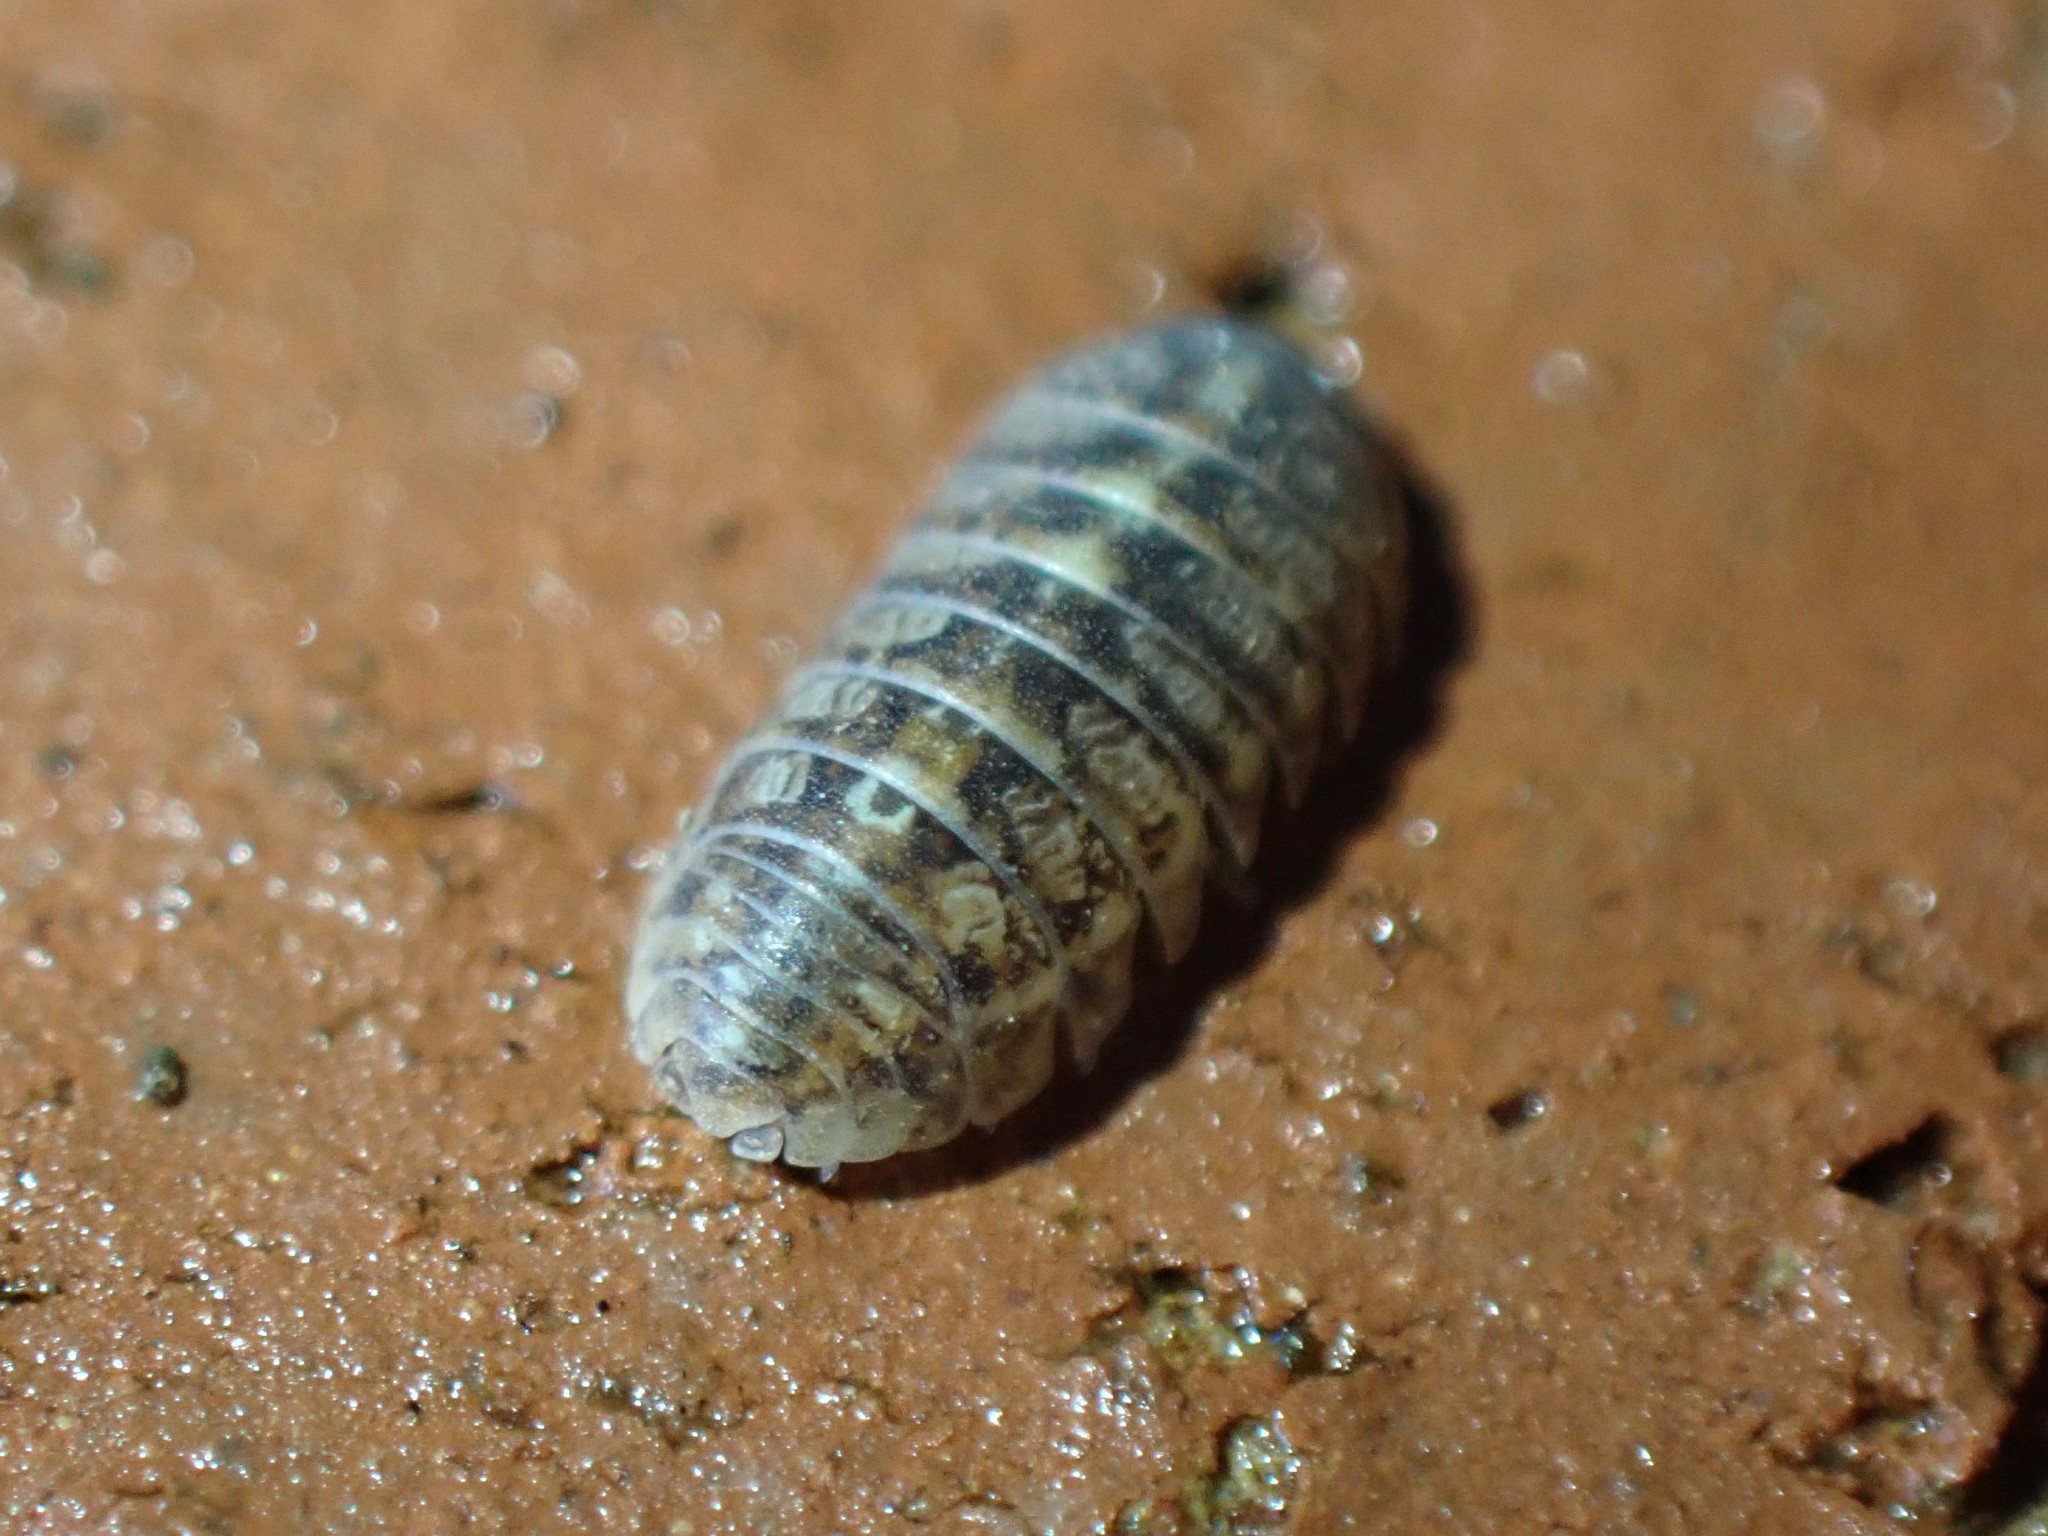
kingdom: Animalia
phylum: Arthropoda
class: Malacostraca
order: Isopoda
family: Armadillidiidae
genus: Armadillidium
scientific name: Armadillidium vulgare
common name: Common pill woodlouse
